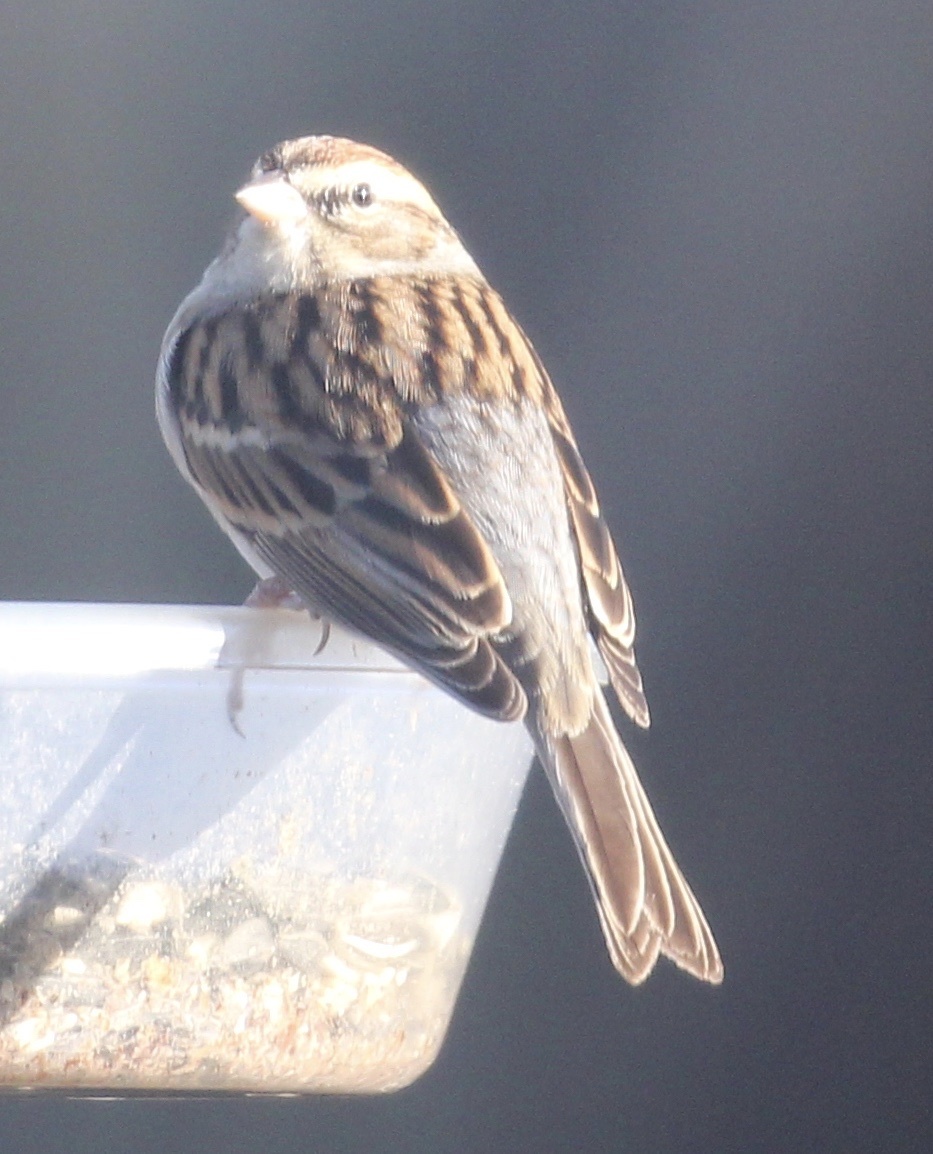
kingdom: Animalia
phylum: Chordata
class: Aves
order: Passeriformes
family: Passerellidae
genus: Spizella
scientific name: Spizella passerina
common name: Chipping sparrow
